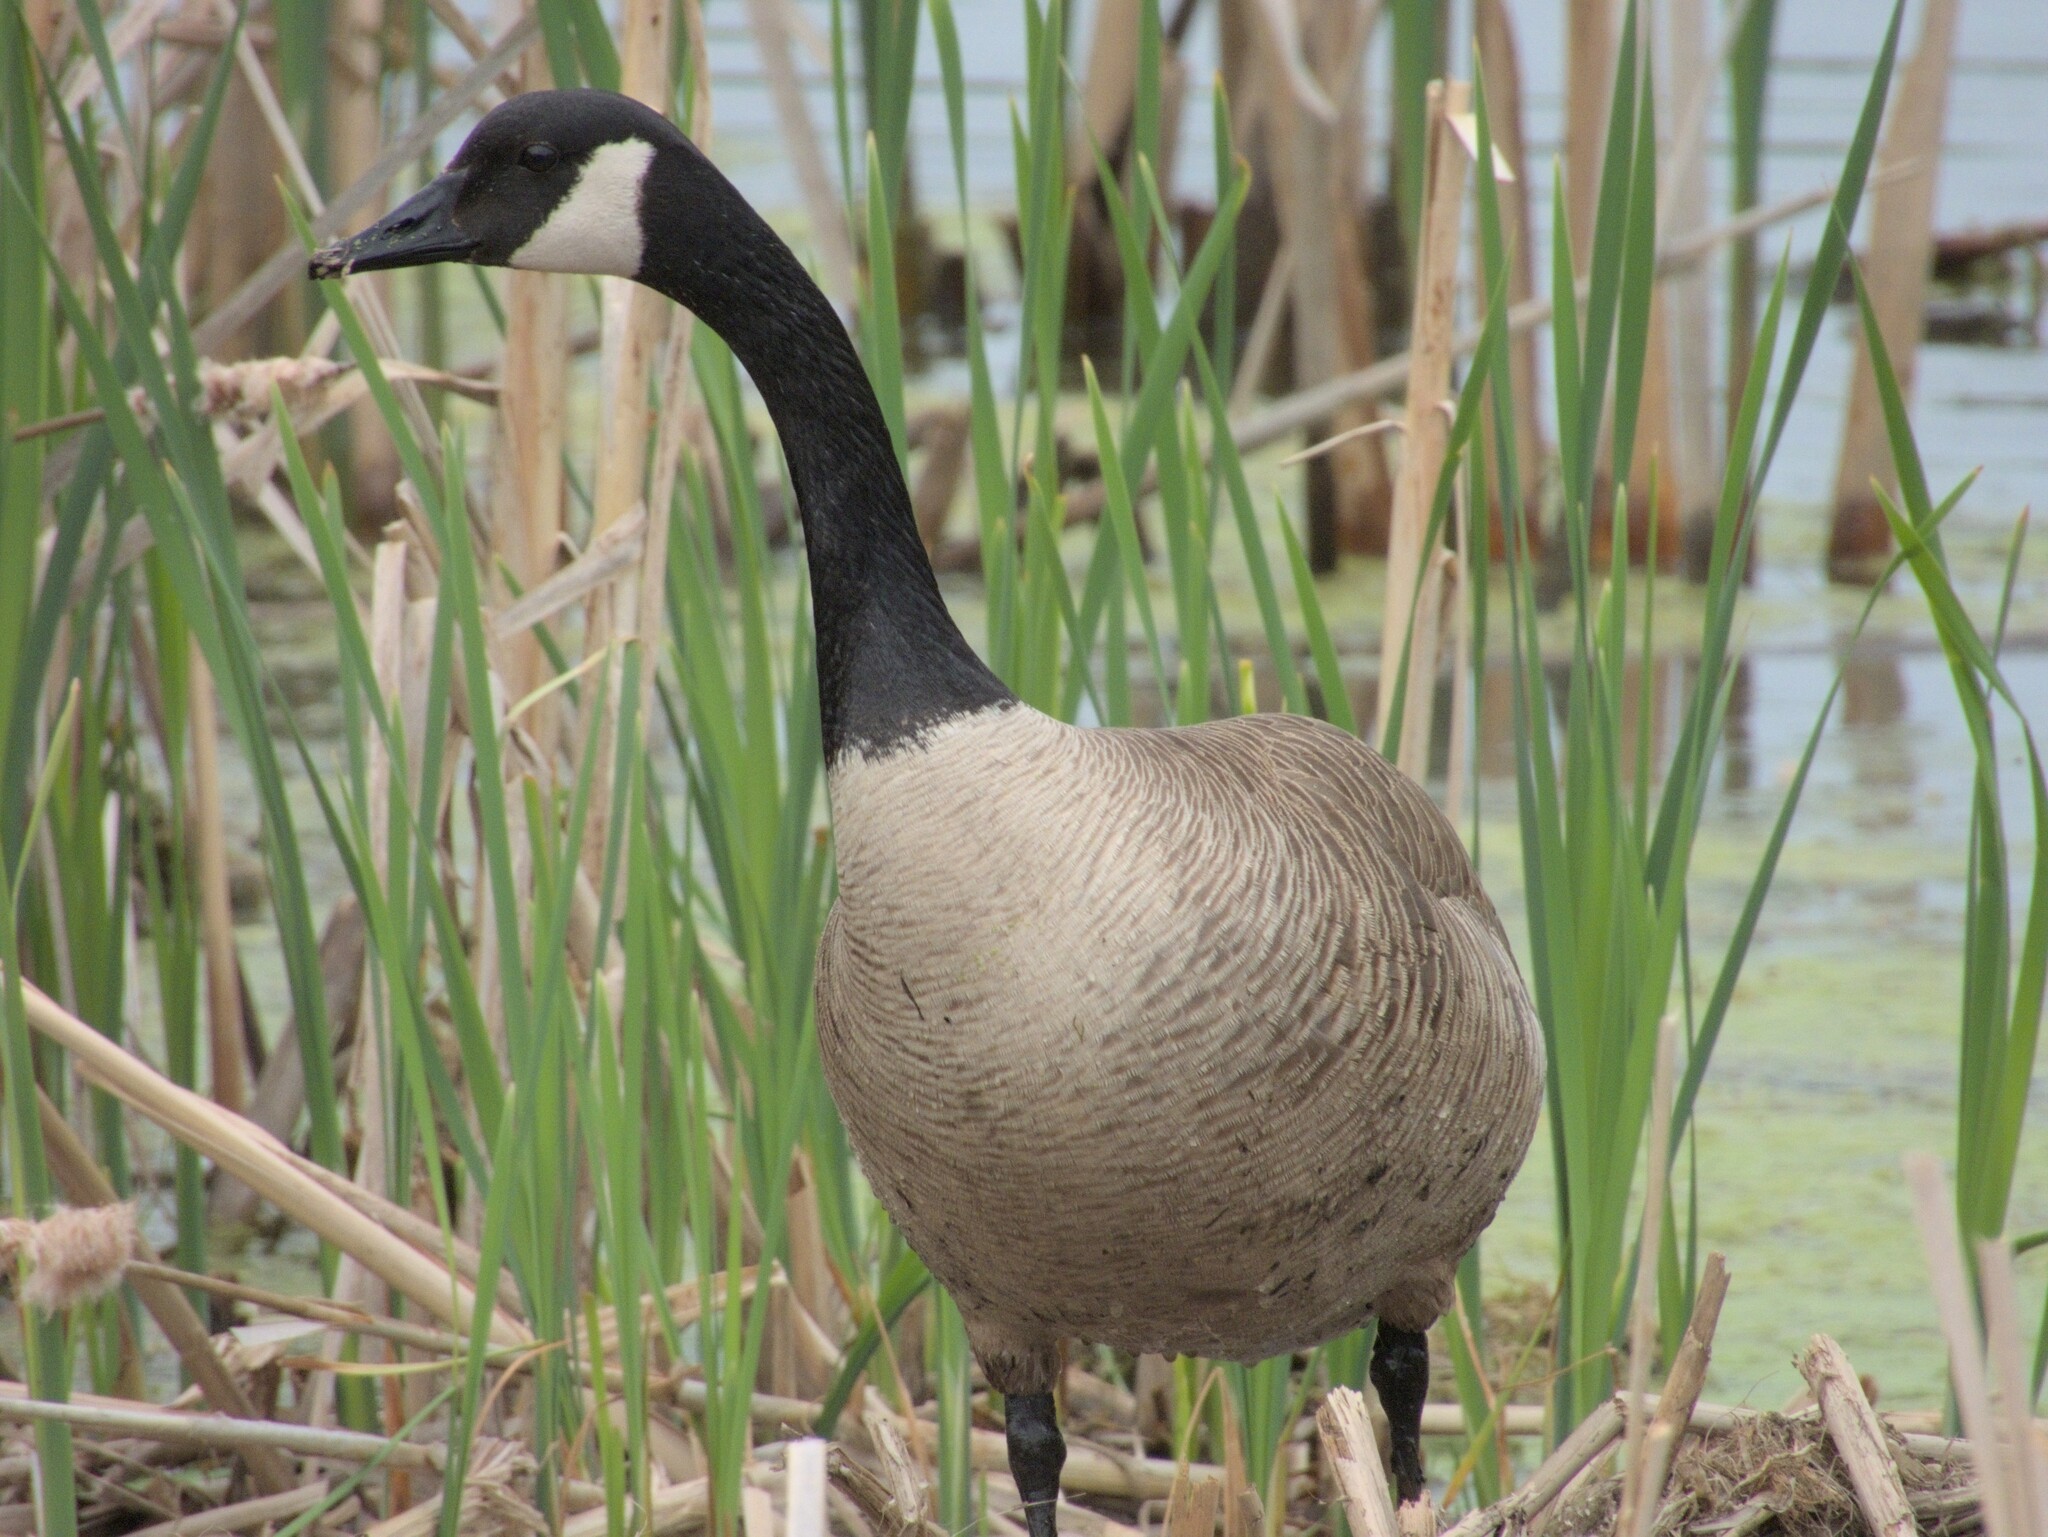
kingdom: Animalia
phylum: Chordata
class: Aves
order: Anseriformes
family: Anatidae
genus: Branta
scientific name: Branta canadensis
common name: Canada goose
